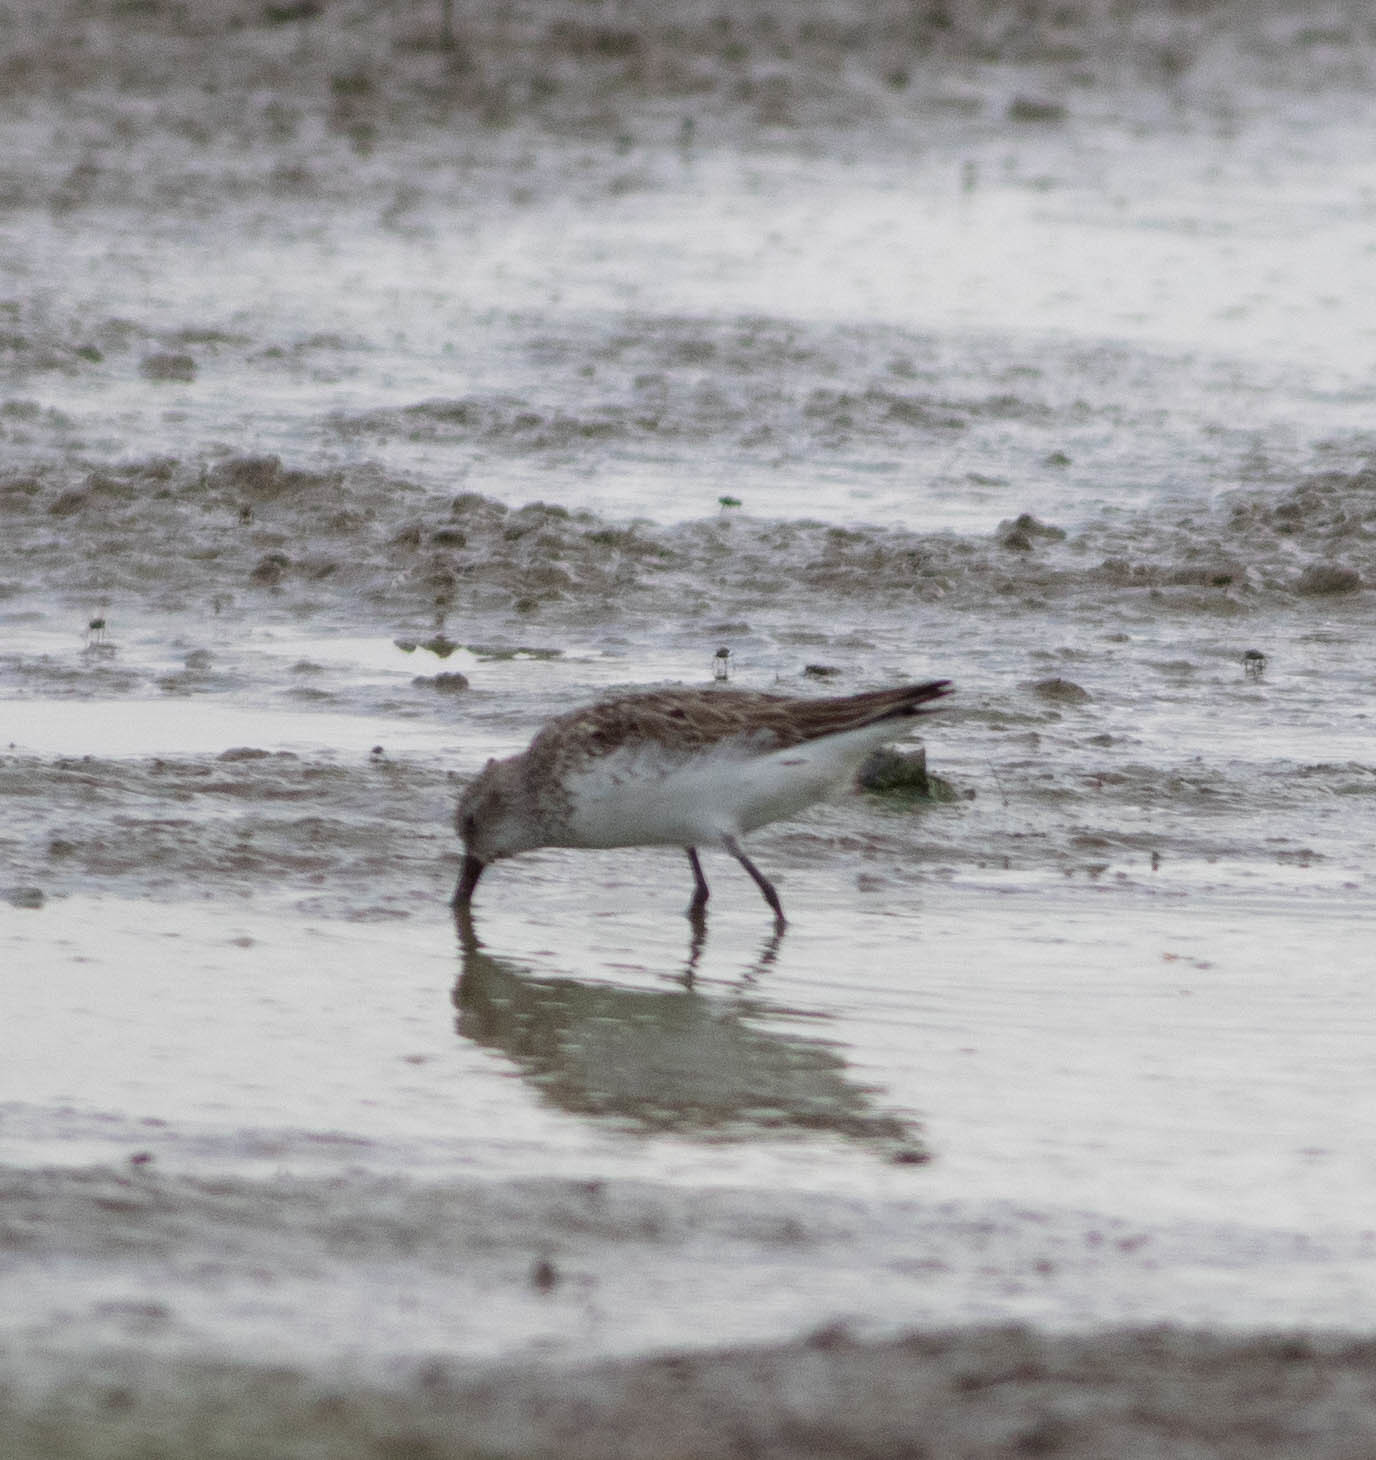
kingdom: Animalia
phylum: Chordata
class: Aves
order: Charadriiformes
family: Scolopacidae
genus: Calidris
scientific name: Calidris mauri
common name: Western sandpiper
